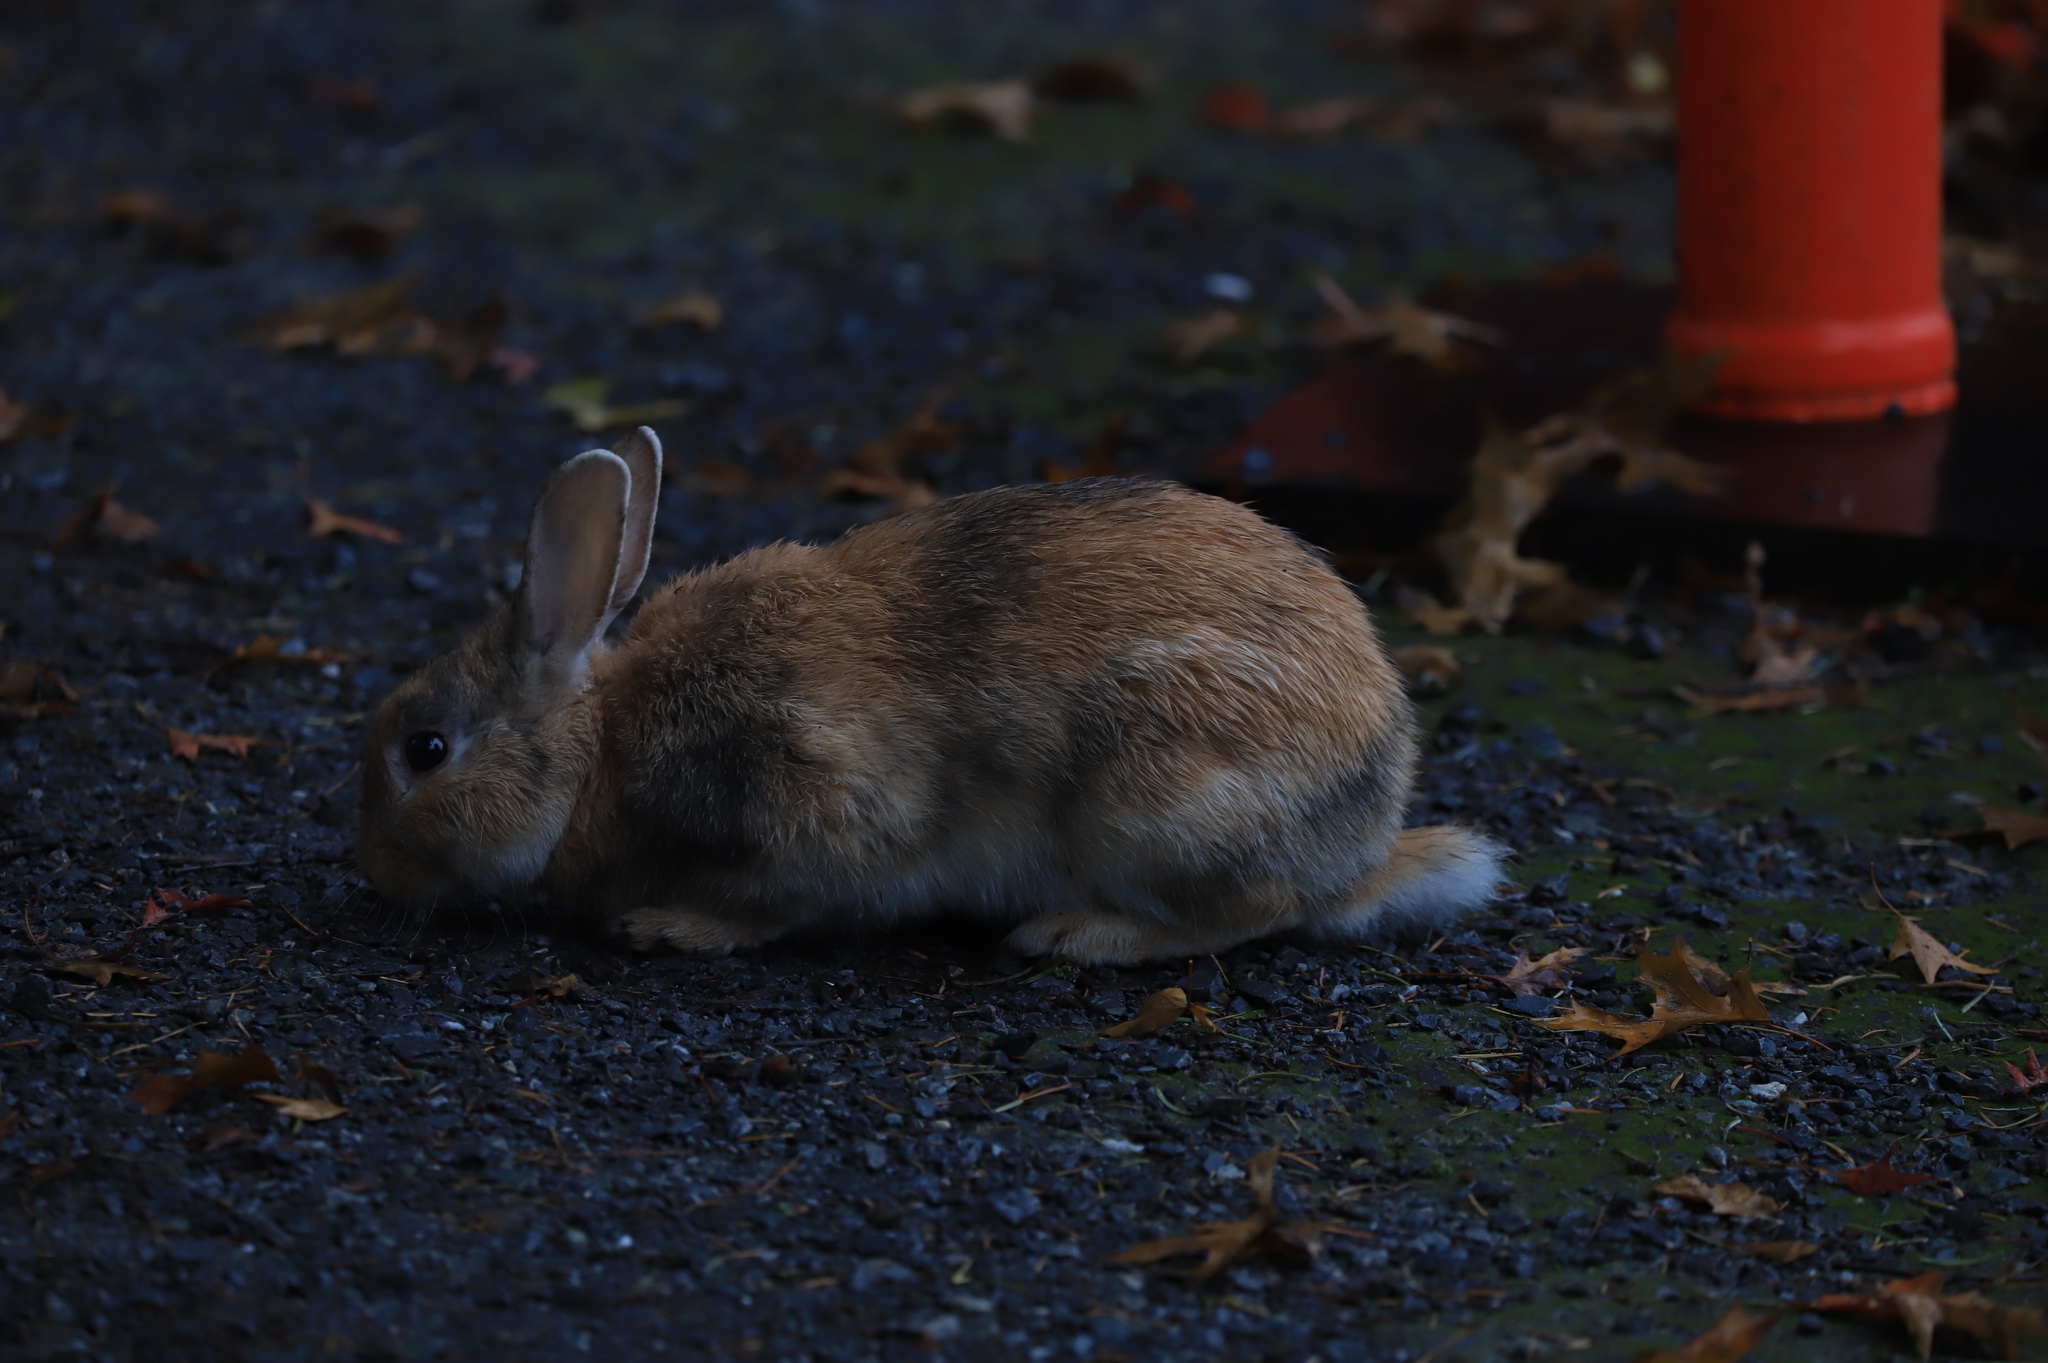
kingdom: Animalia
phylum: Chordata
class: Mammalia
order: Lagomorpha
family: Leporidae
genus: Oryctolagus
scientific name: Oryctolagus cuniculus
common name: European rabbit
